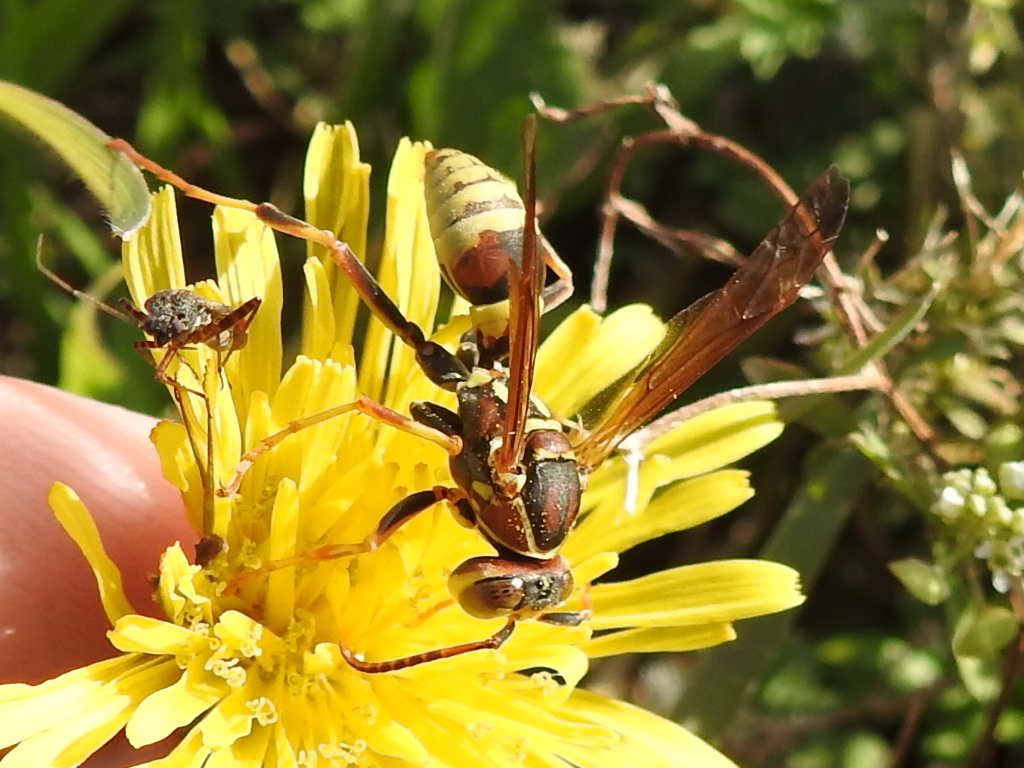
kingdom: Animalia
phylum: Arthropoda
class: Insecta
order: Hymenoptera
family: Eumenidae
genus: Polistes
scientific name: Polistes dorsalis
